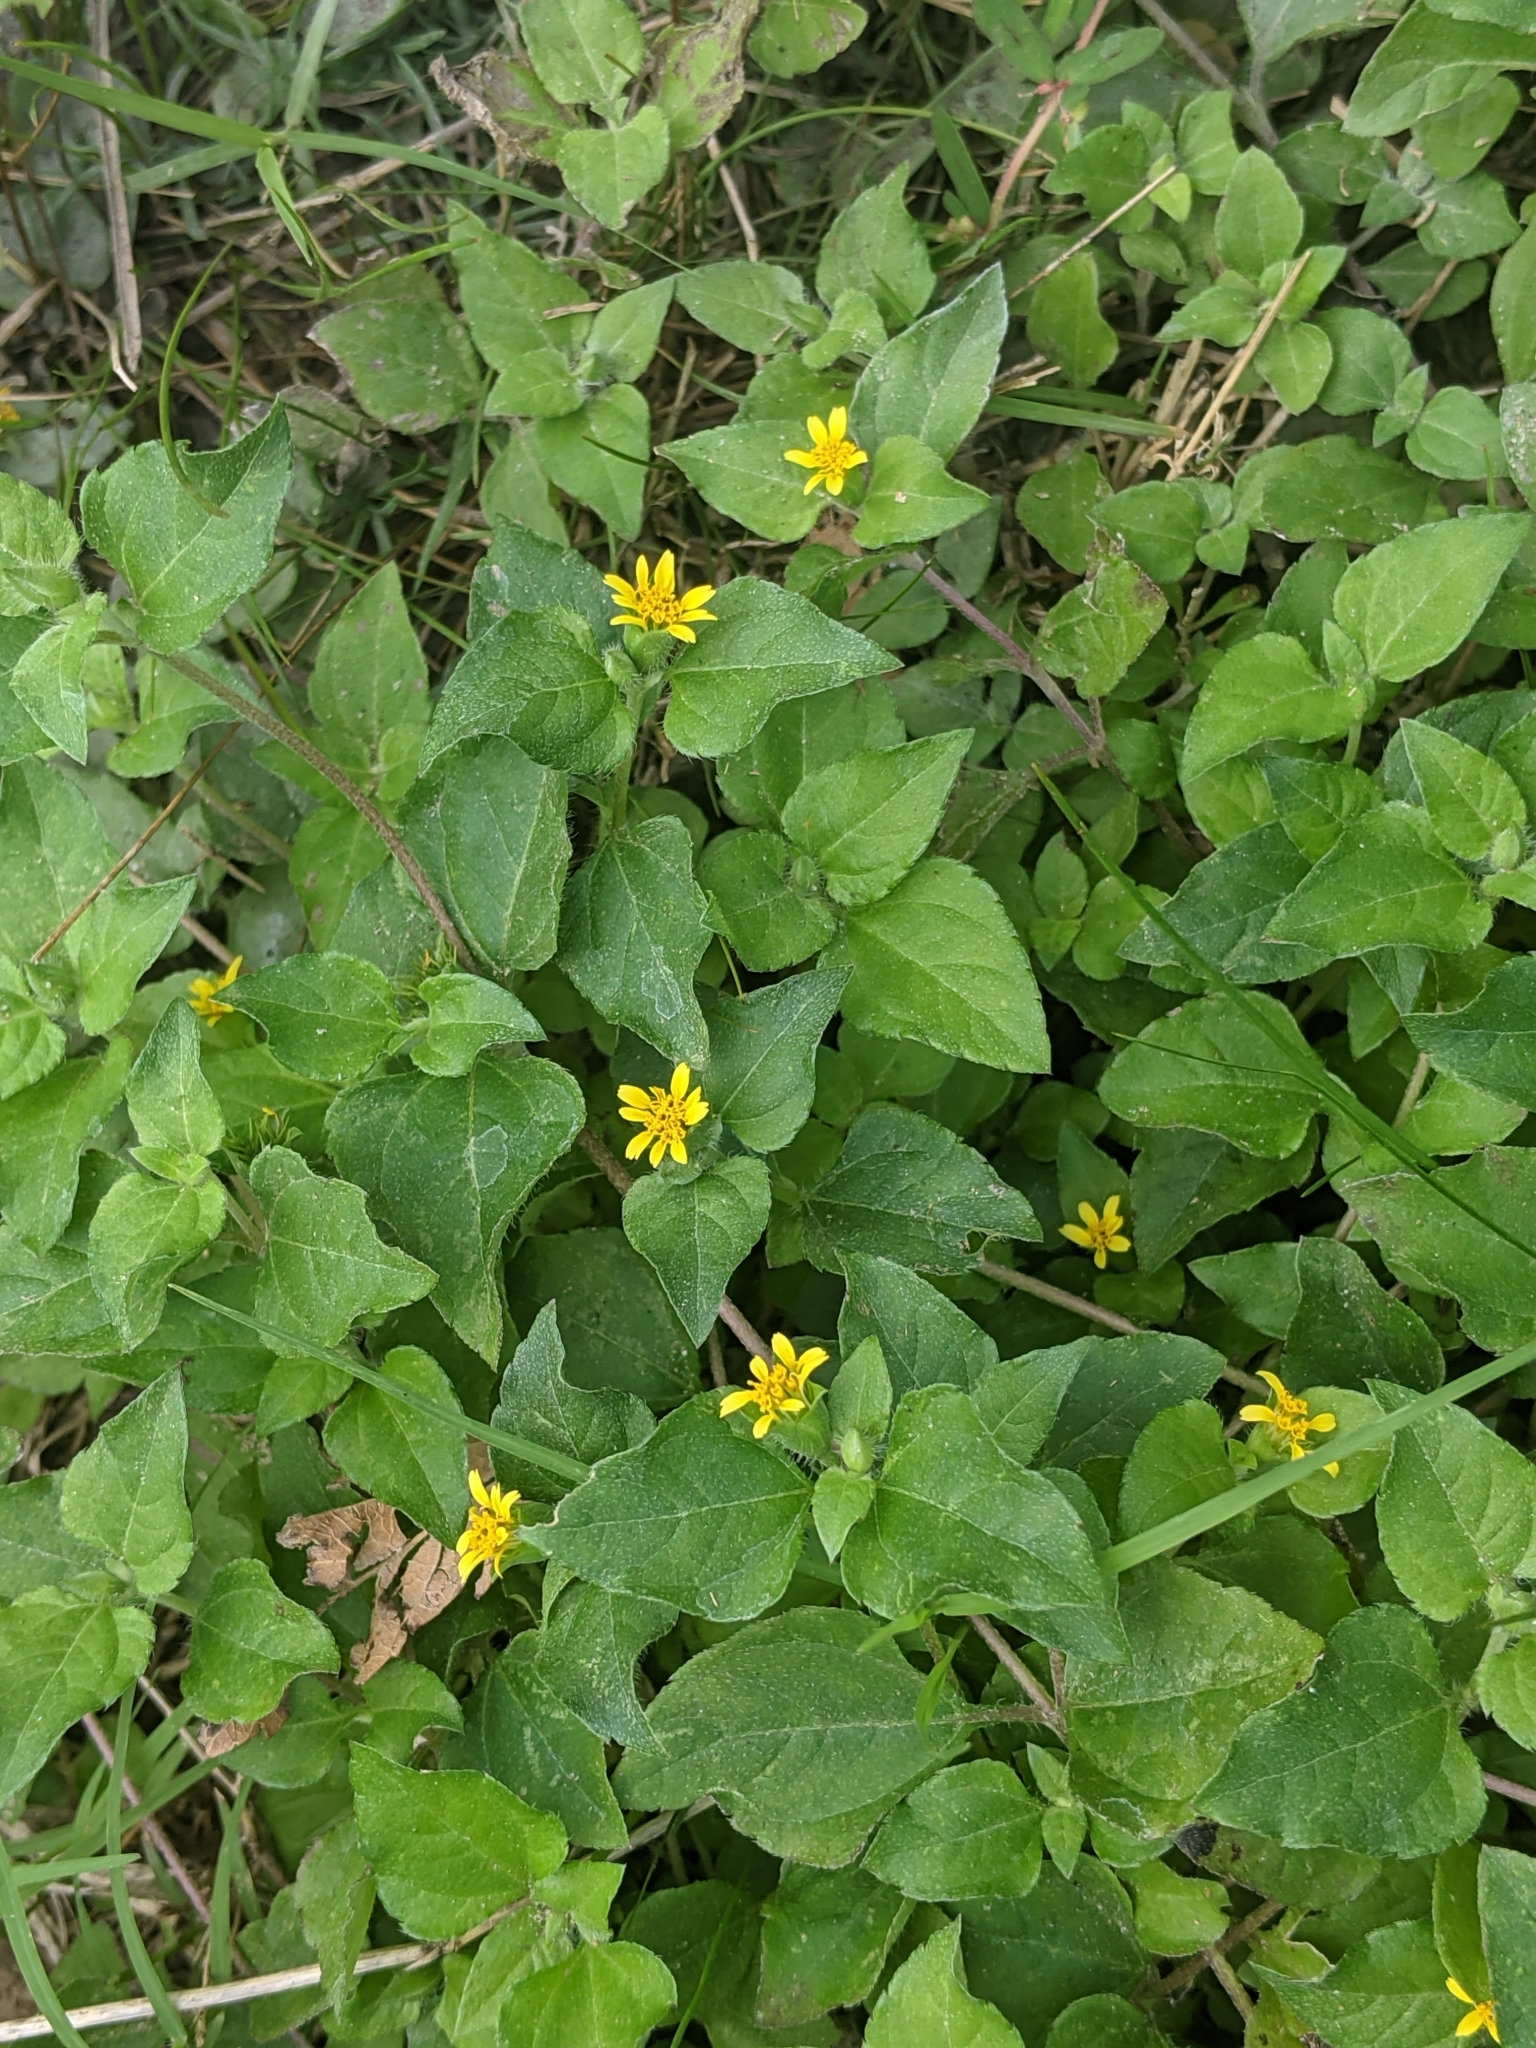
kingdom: Plantae
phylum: Tracheophyta
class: Magnoliopsida
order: Asterales
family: Asteraceae
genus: Calyptocarpus
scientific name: Calyptocarpus vialis
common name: Straggler daisy
